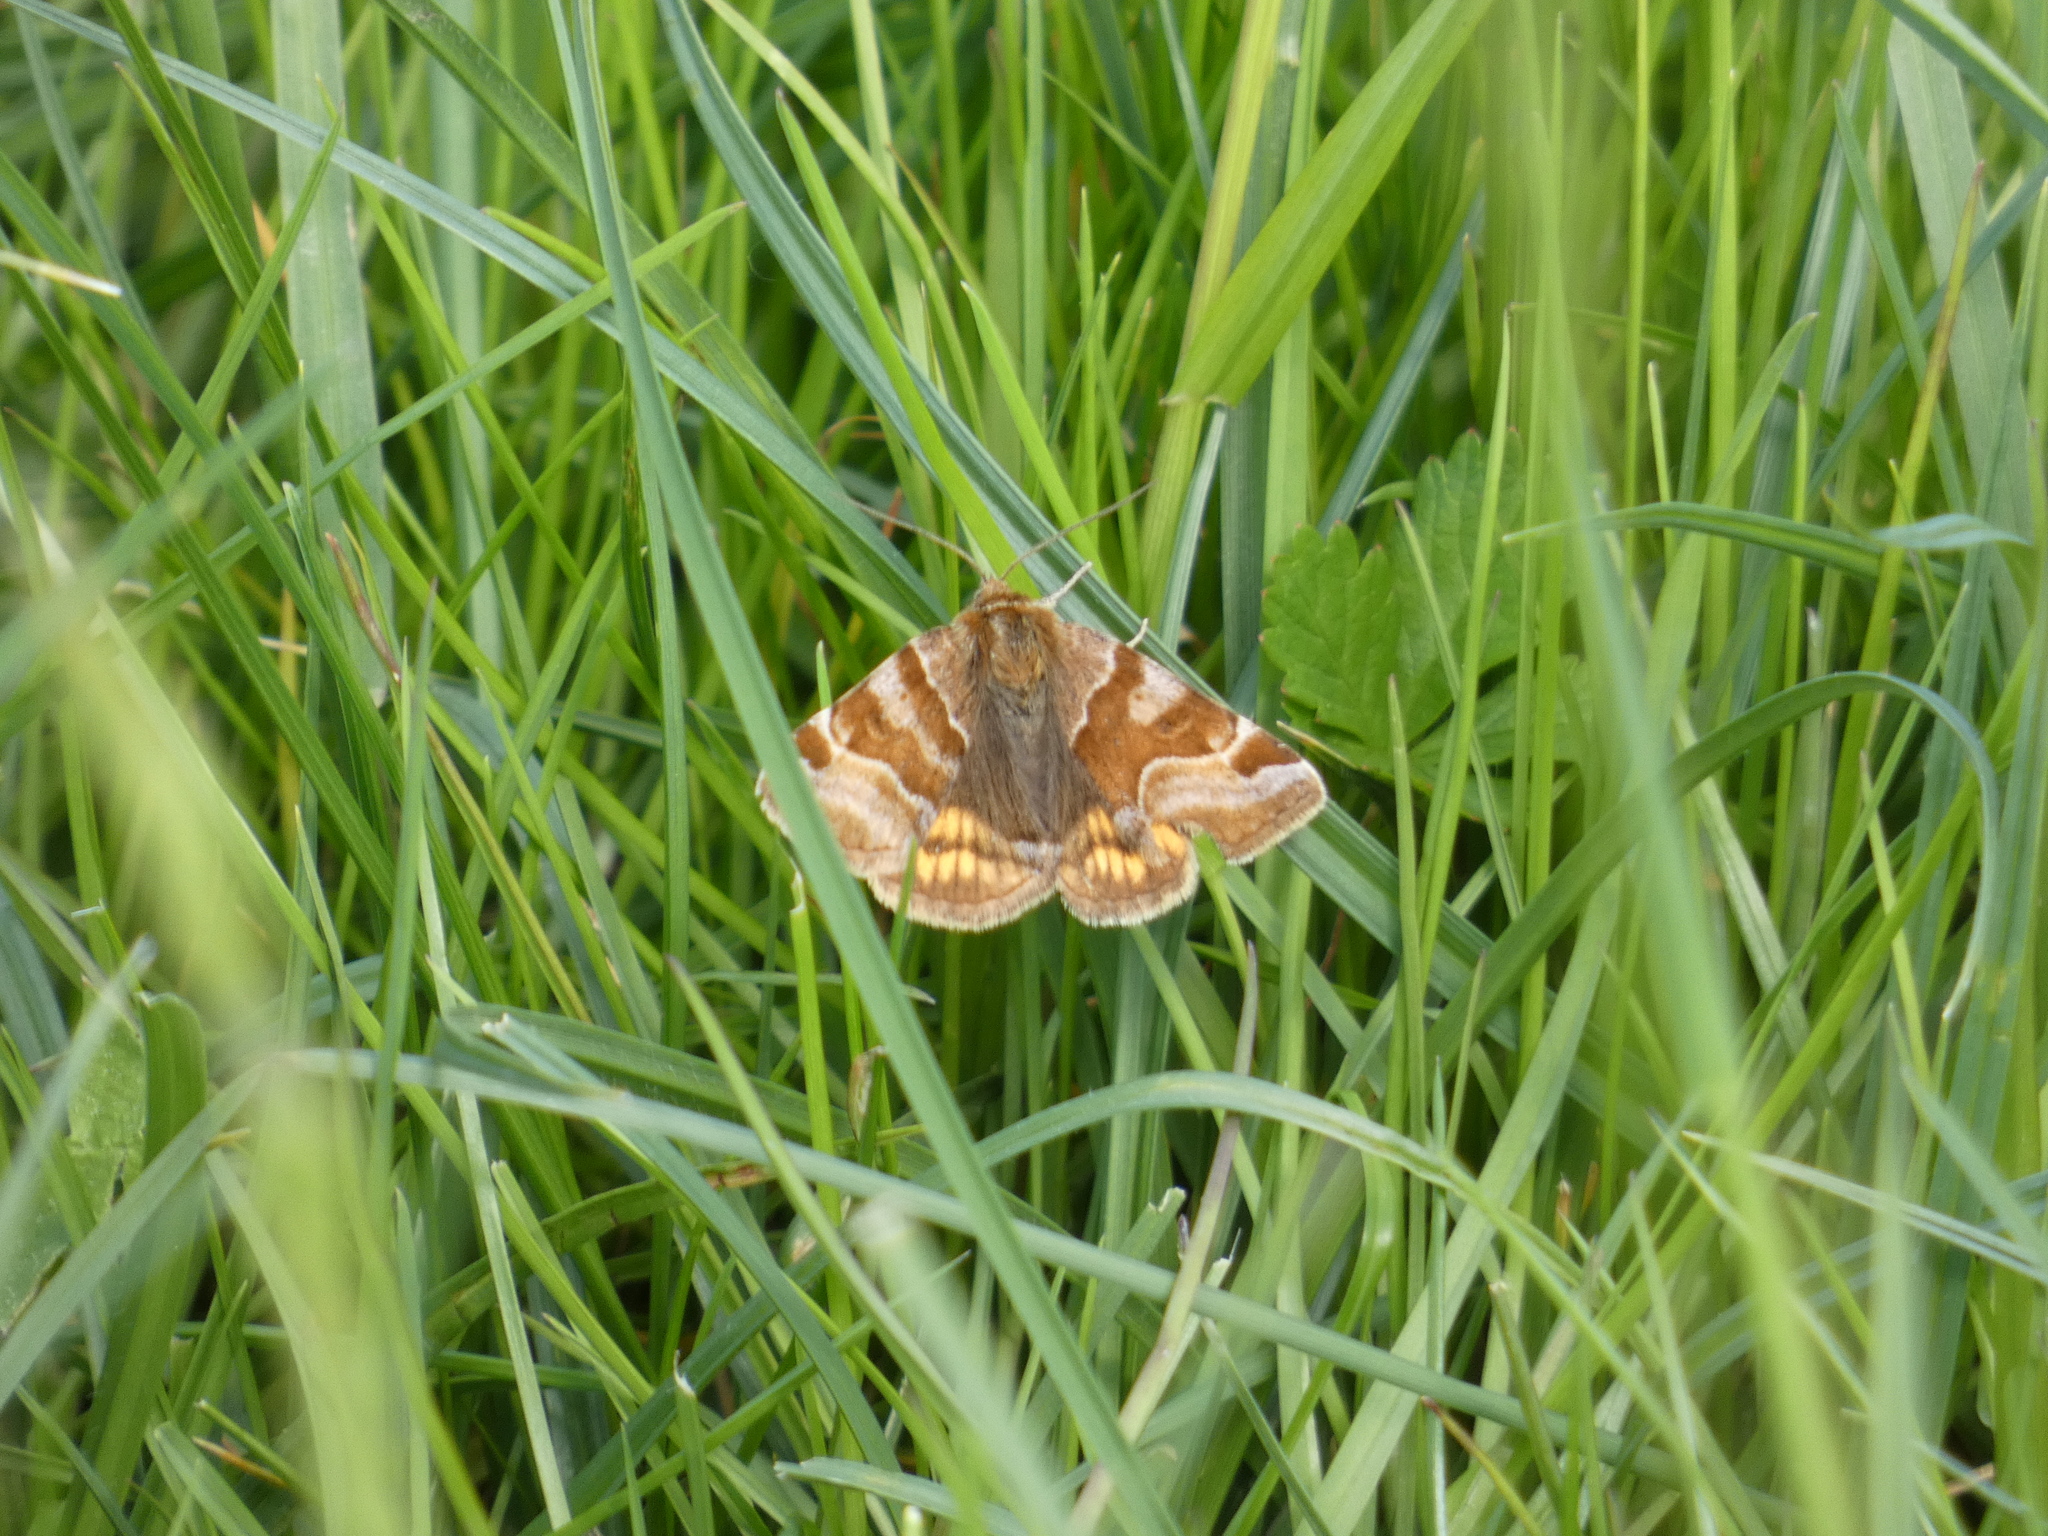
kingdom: Animalia
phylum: Arthropoda
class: Insecta
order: Lepidoptera
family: Erebidae
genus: Euclidia
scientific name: Euclidia glyphica
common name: Burnet companion
